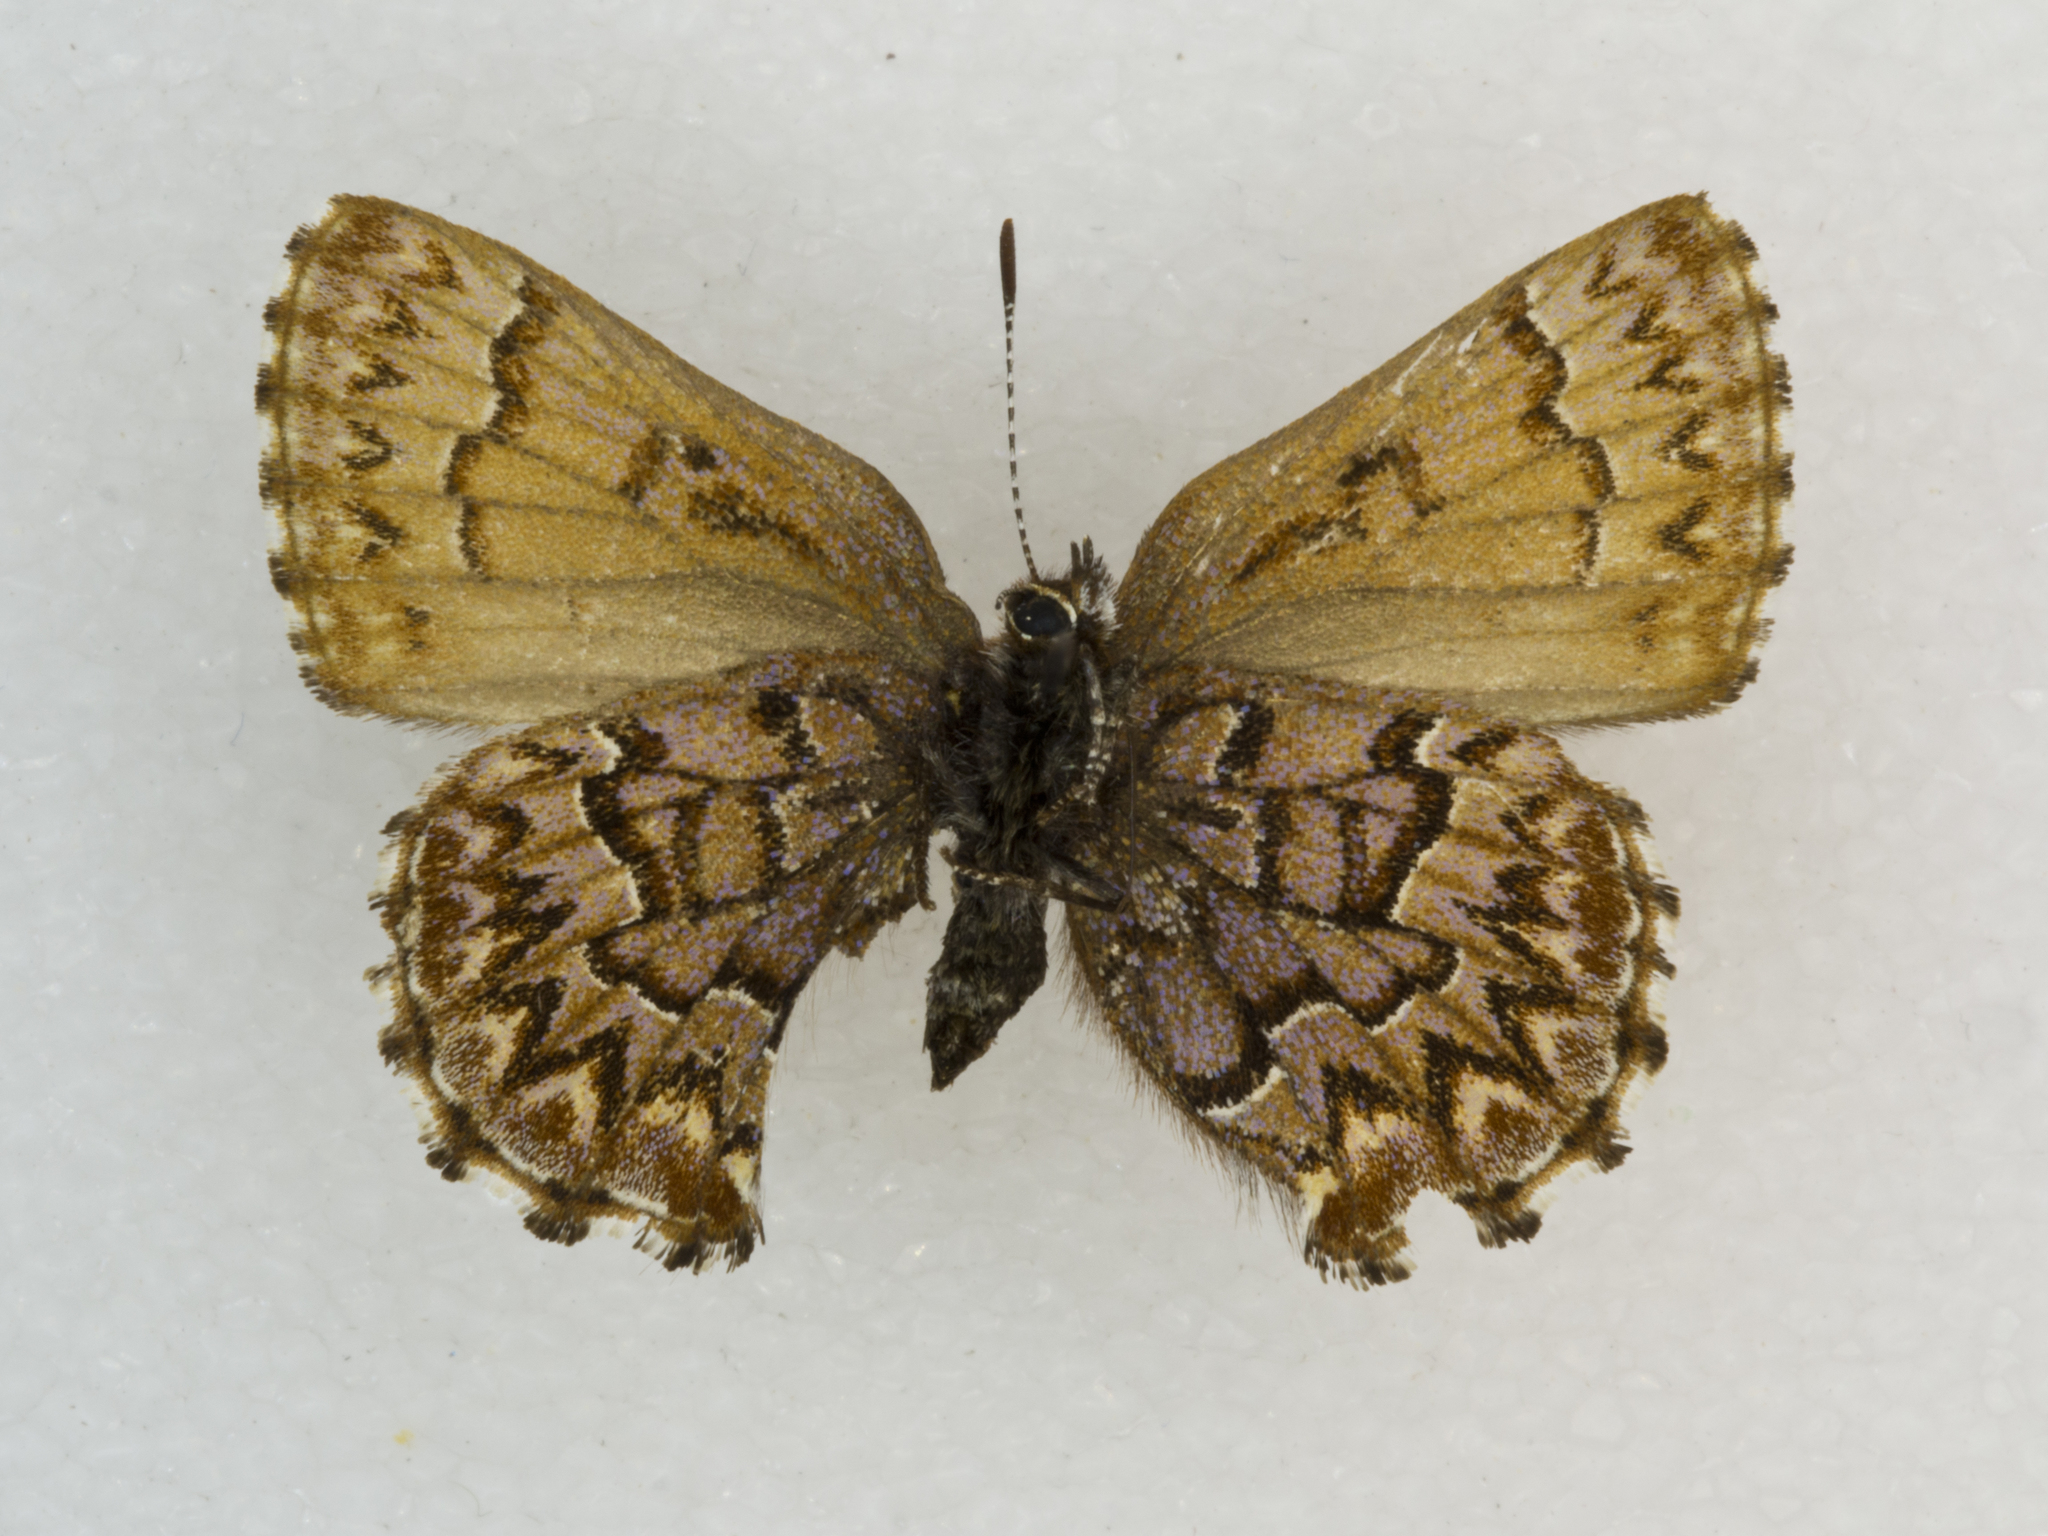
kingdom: Animalia
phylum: Arthropoda
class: Insecta
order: Lepidoptera
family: Lycaenidae
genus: Incisalia
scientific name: Incisalia eryphon
